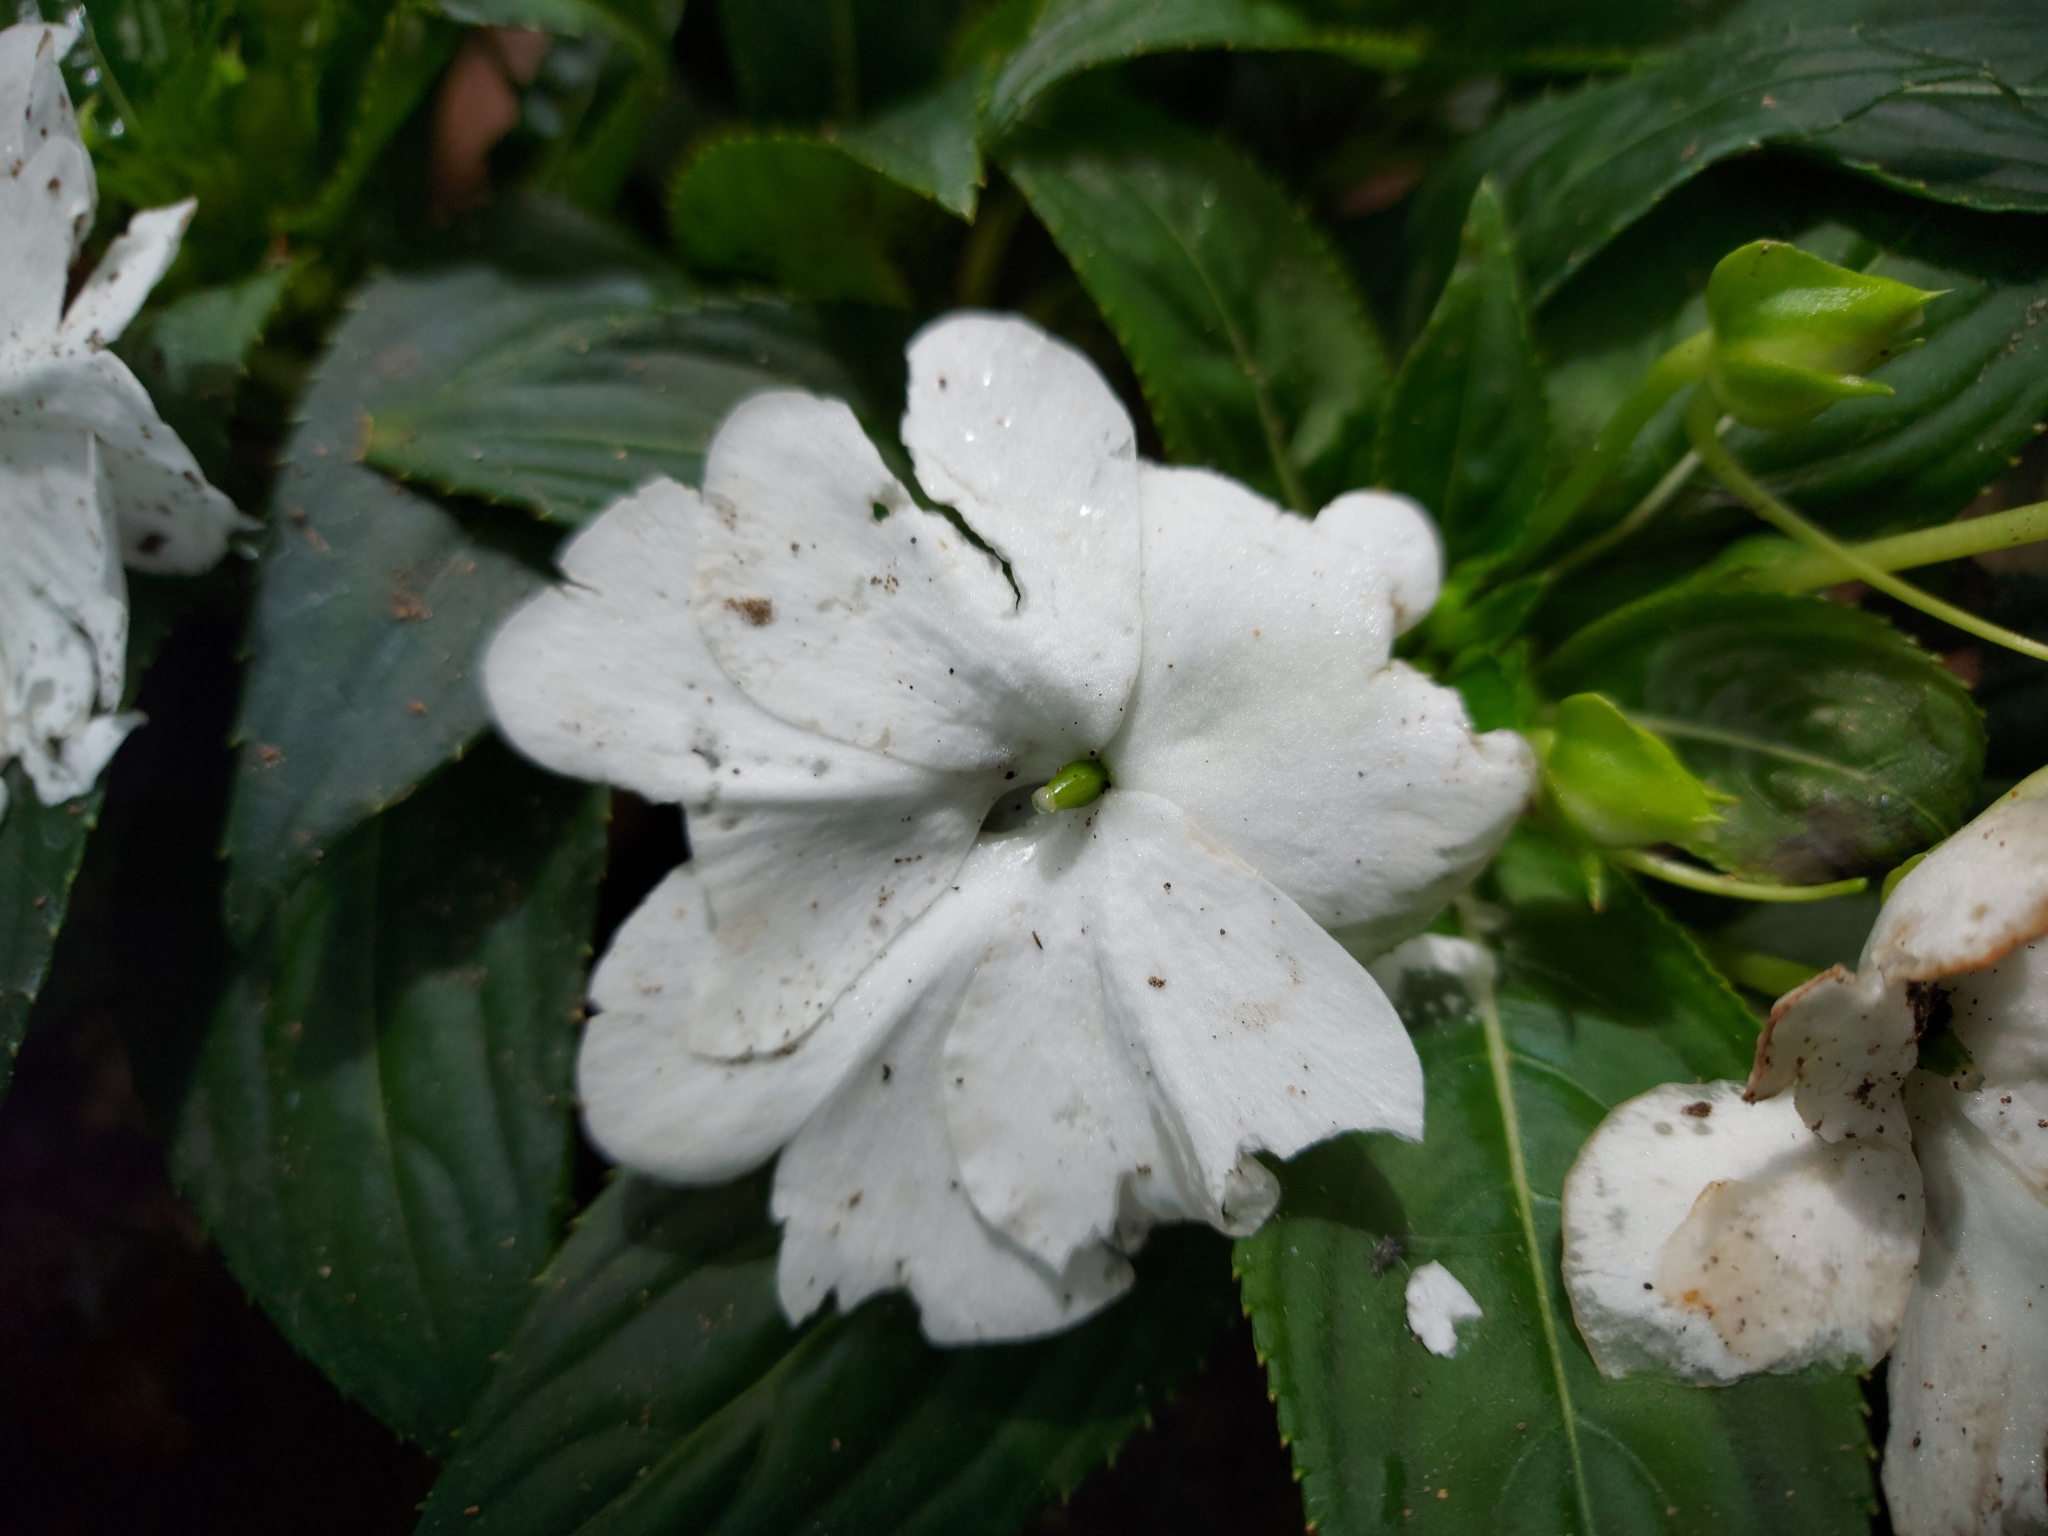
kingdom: Plantae
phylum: Tracheophyta
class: Magnoliopsida
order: Ericales
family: Balsaminaceae
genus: Impatiens
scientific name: Impatiens hawkeri
